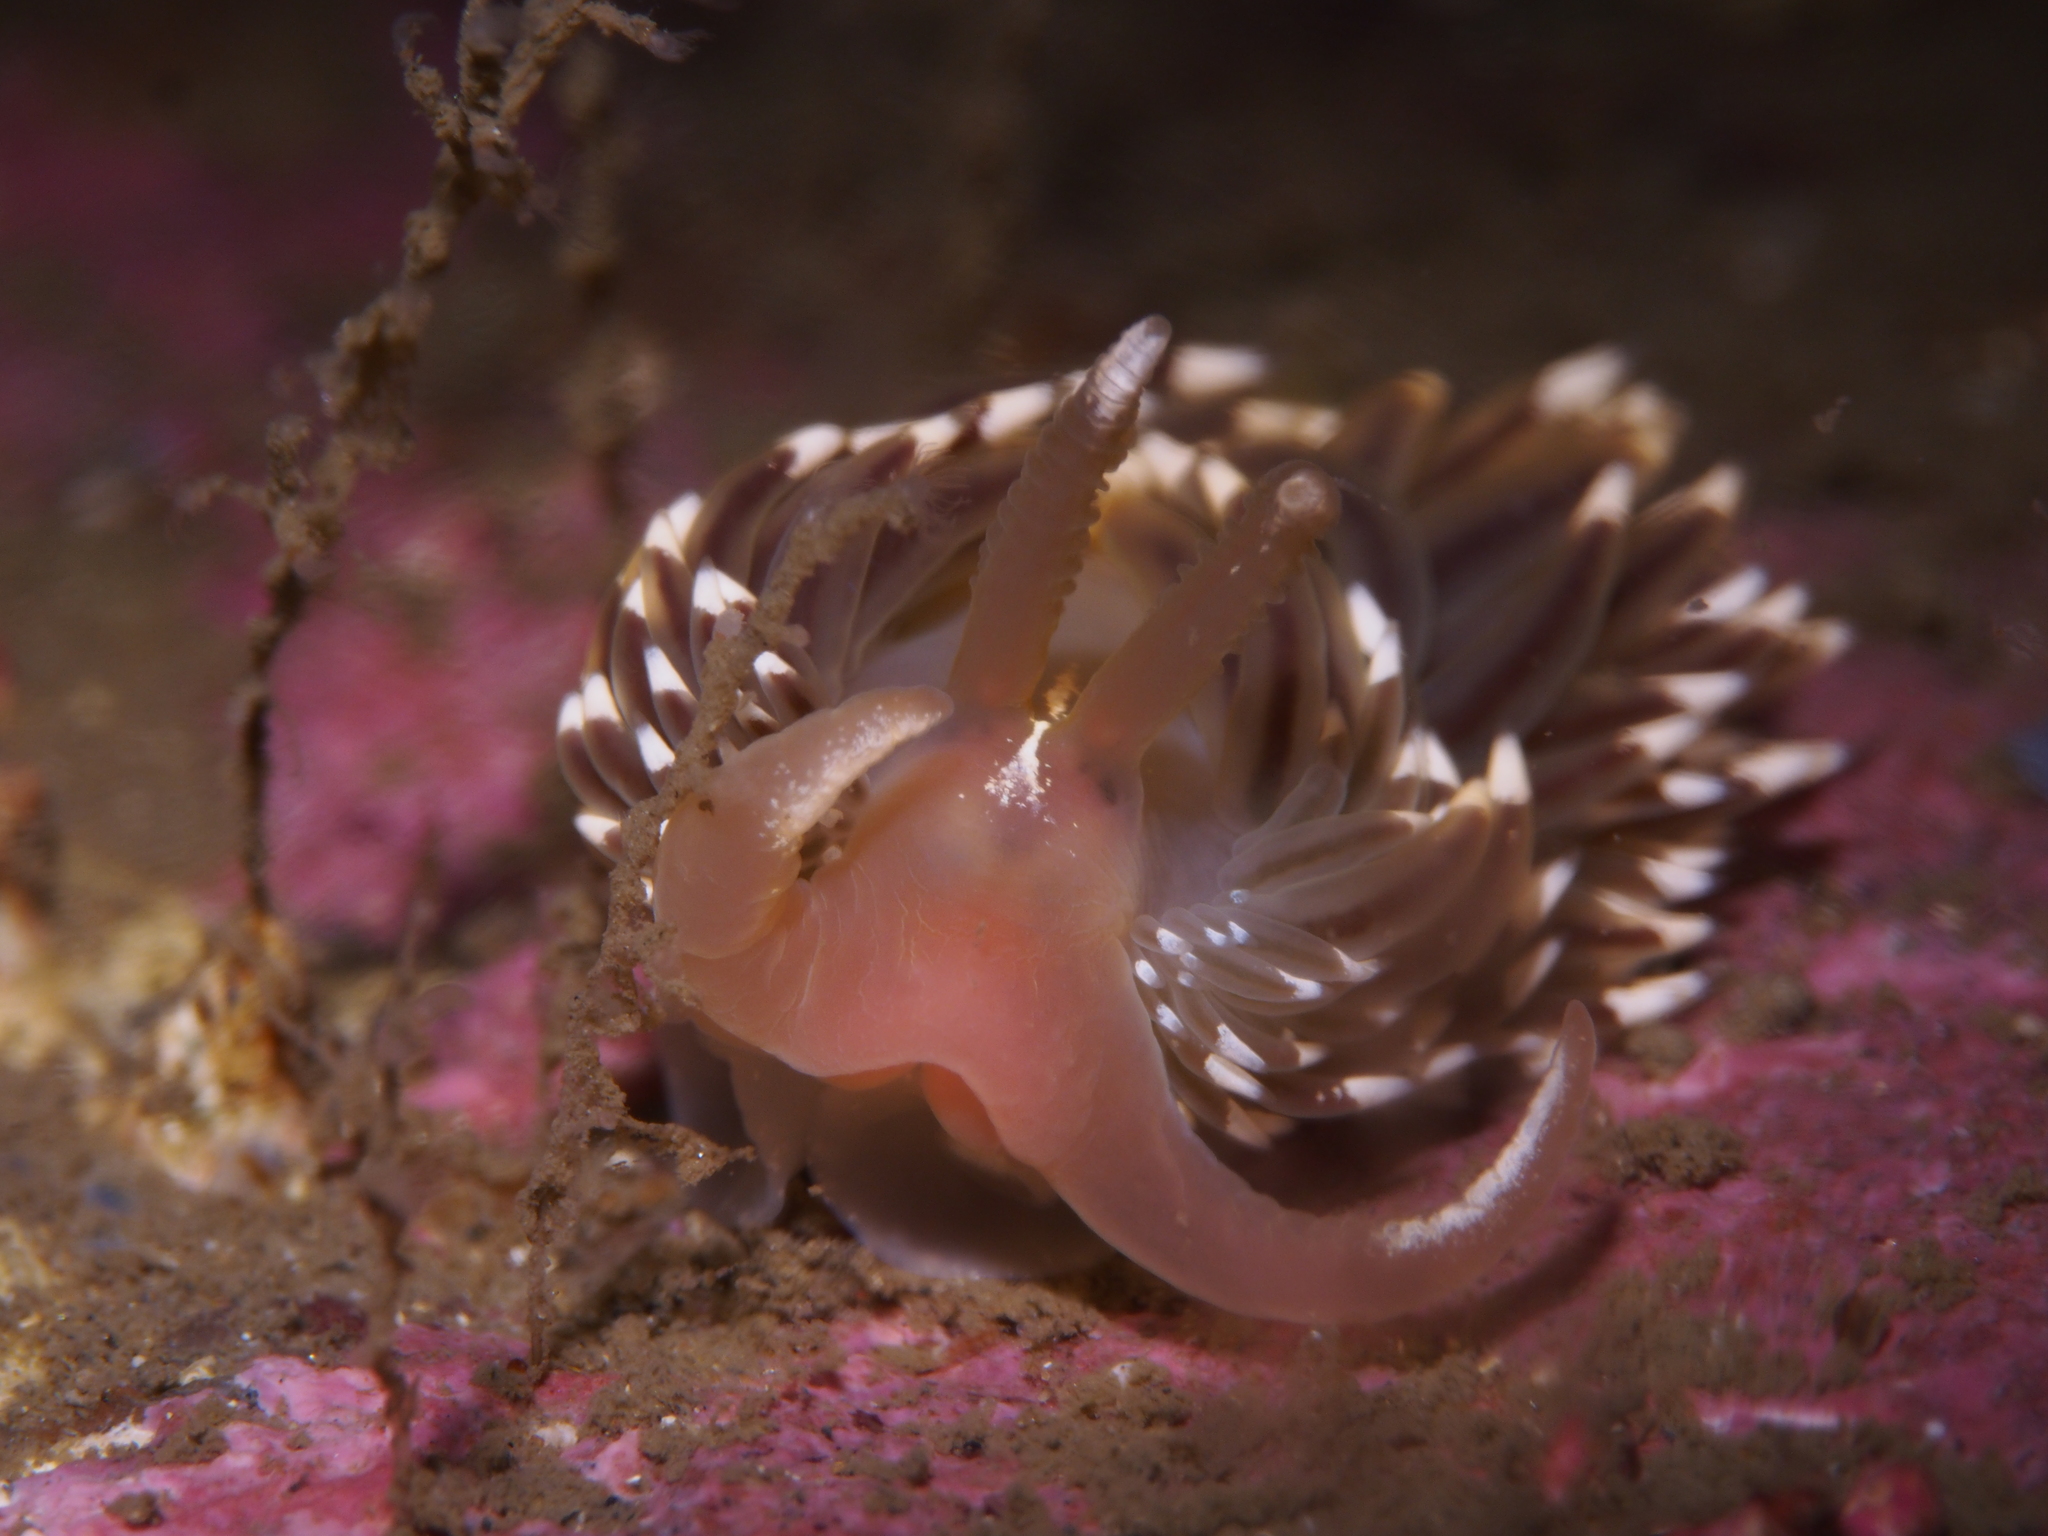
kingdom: Animalia
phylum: Mollusca
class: Gastropoda
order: Nudibranchia
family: Facelinidae
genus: Facelina
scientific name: Facelina bostoniensis
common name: Boston facelina
